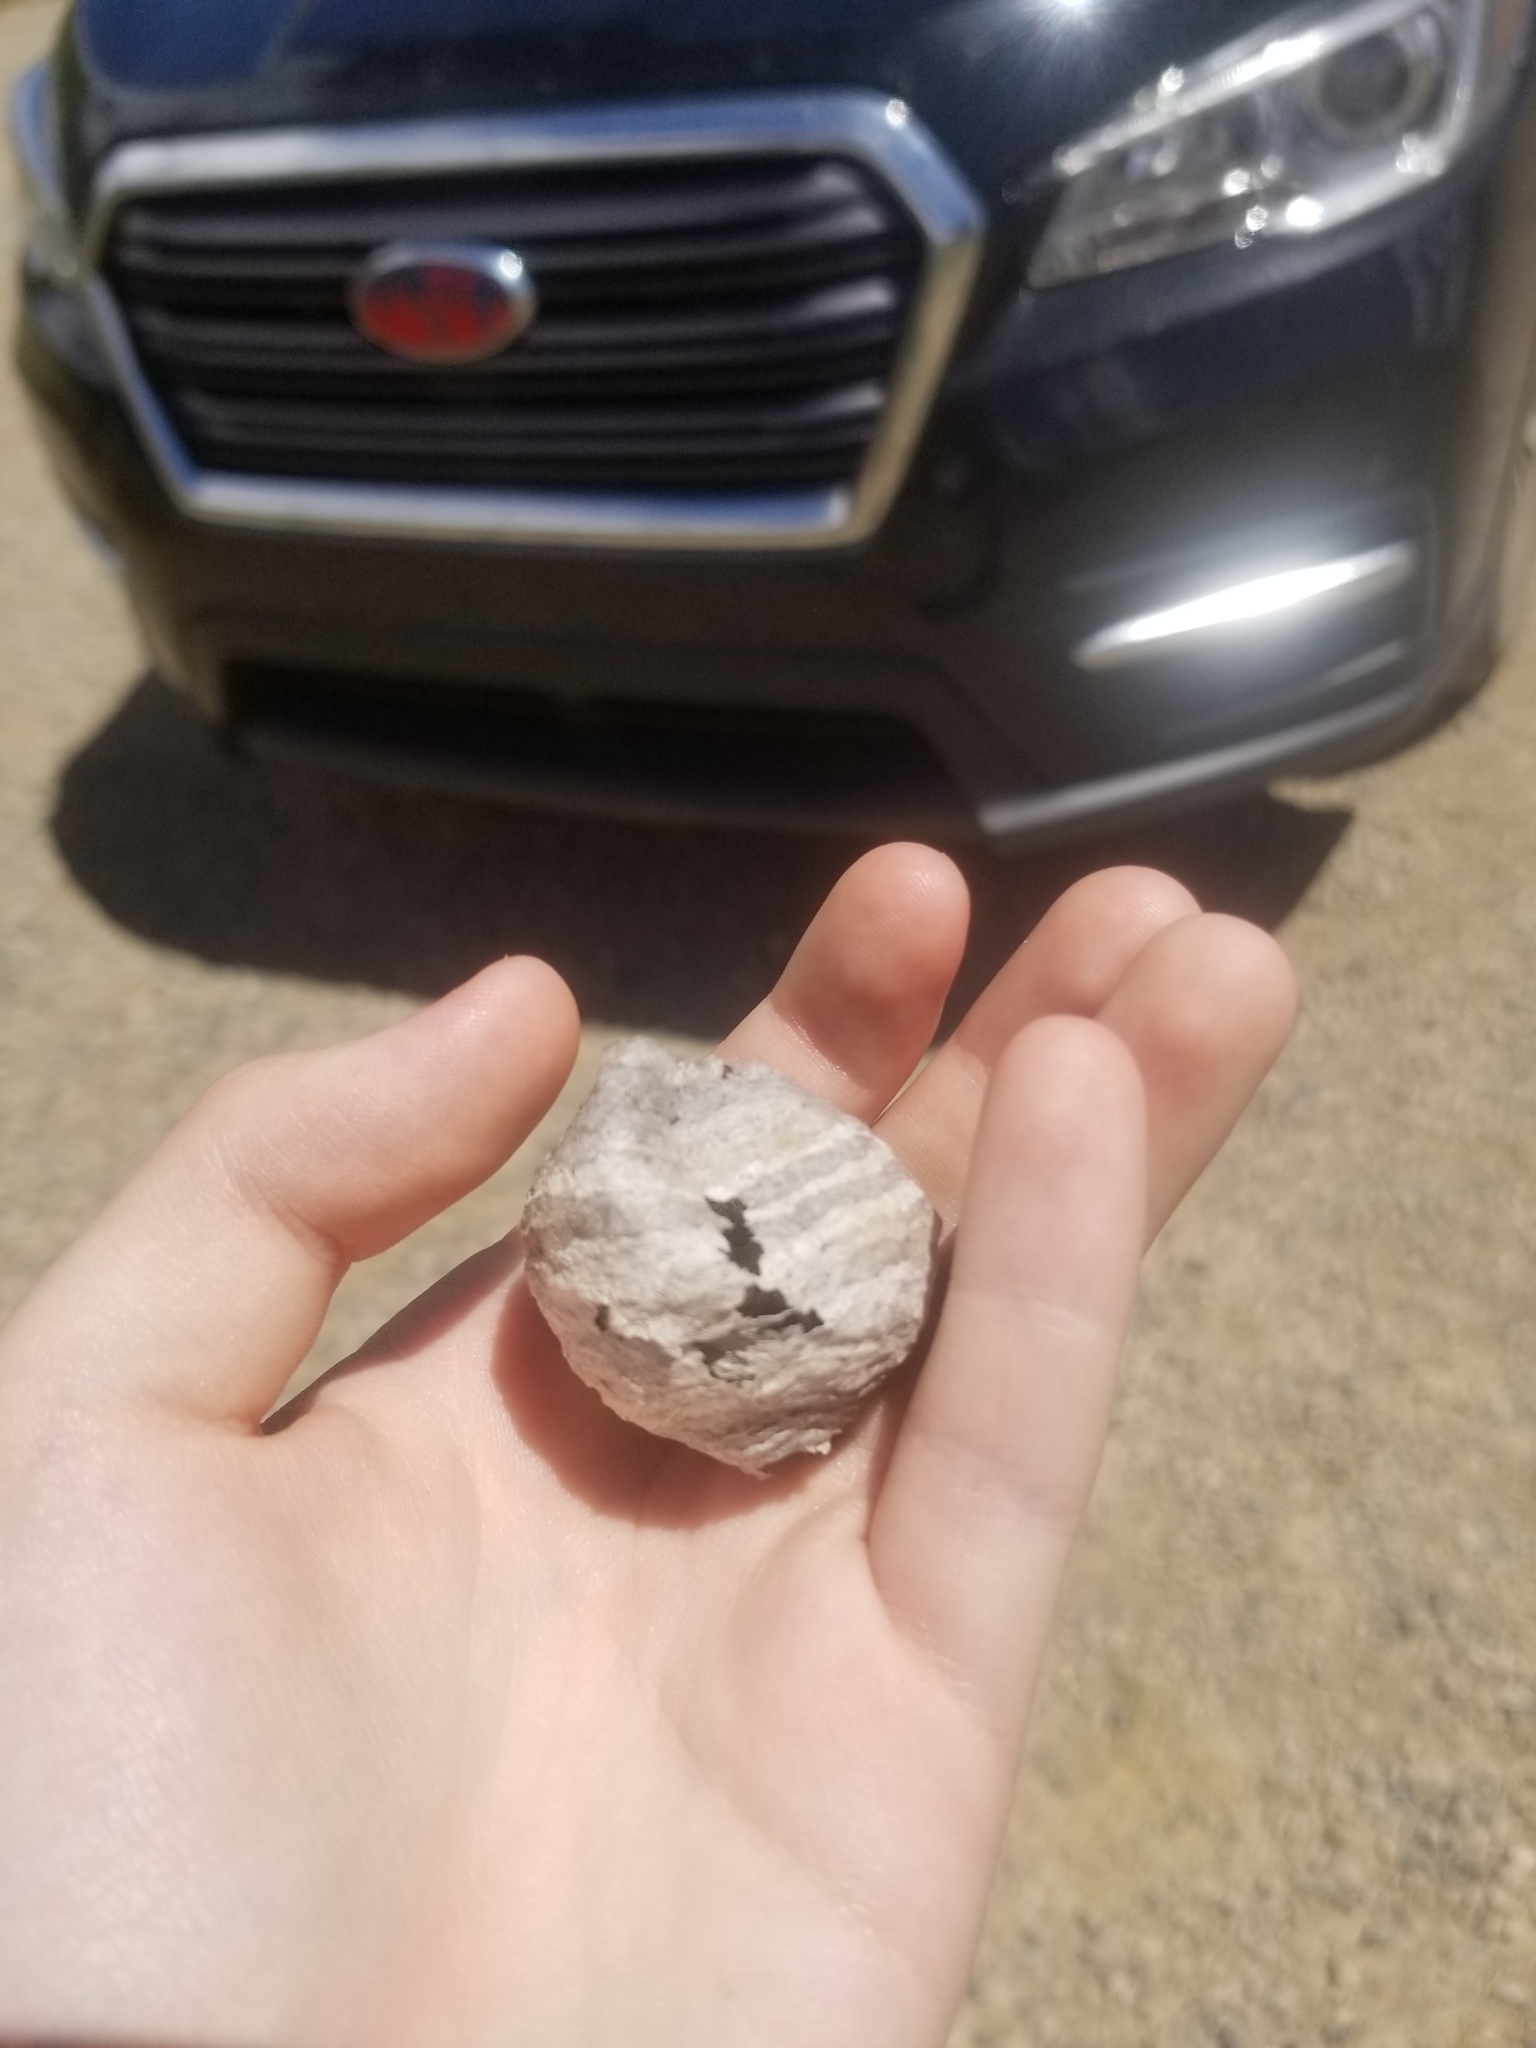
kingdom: Animalia
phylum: Arthropoda
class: Insecta
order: Hymenoptera
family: Vespidae
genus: Dolichovespula
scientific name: Dolichovespula
